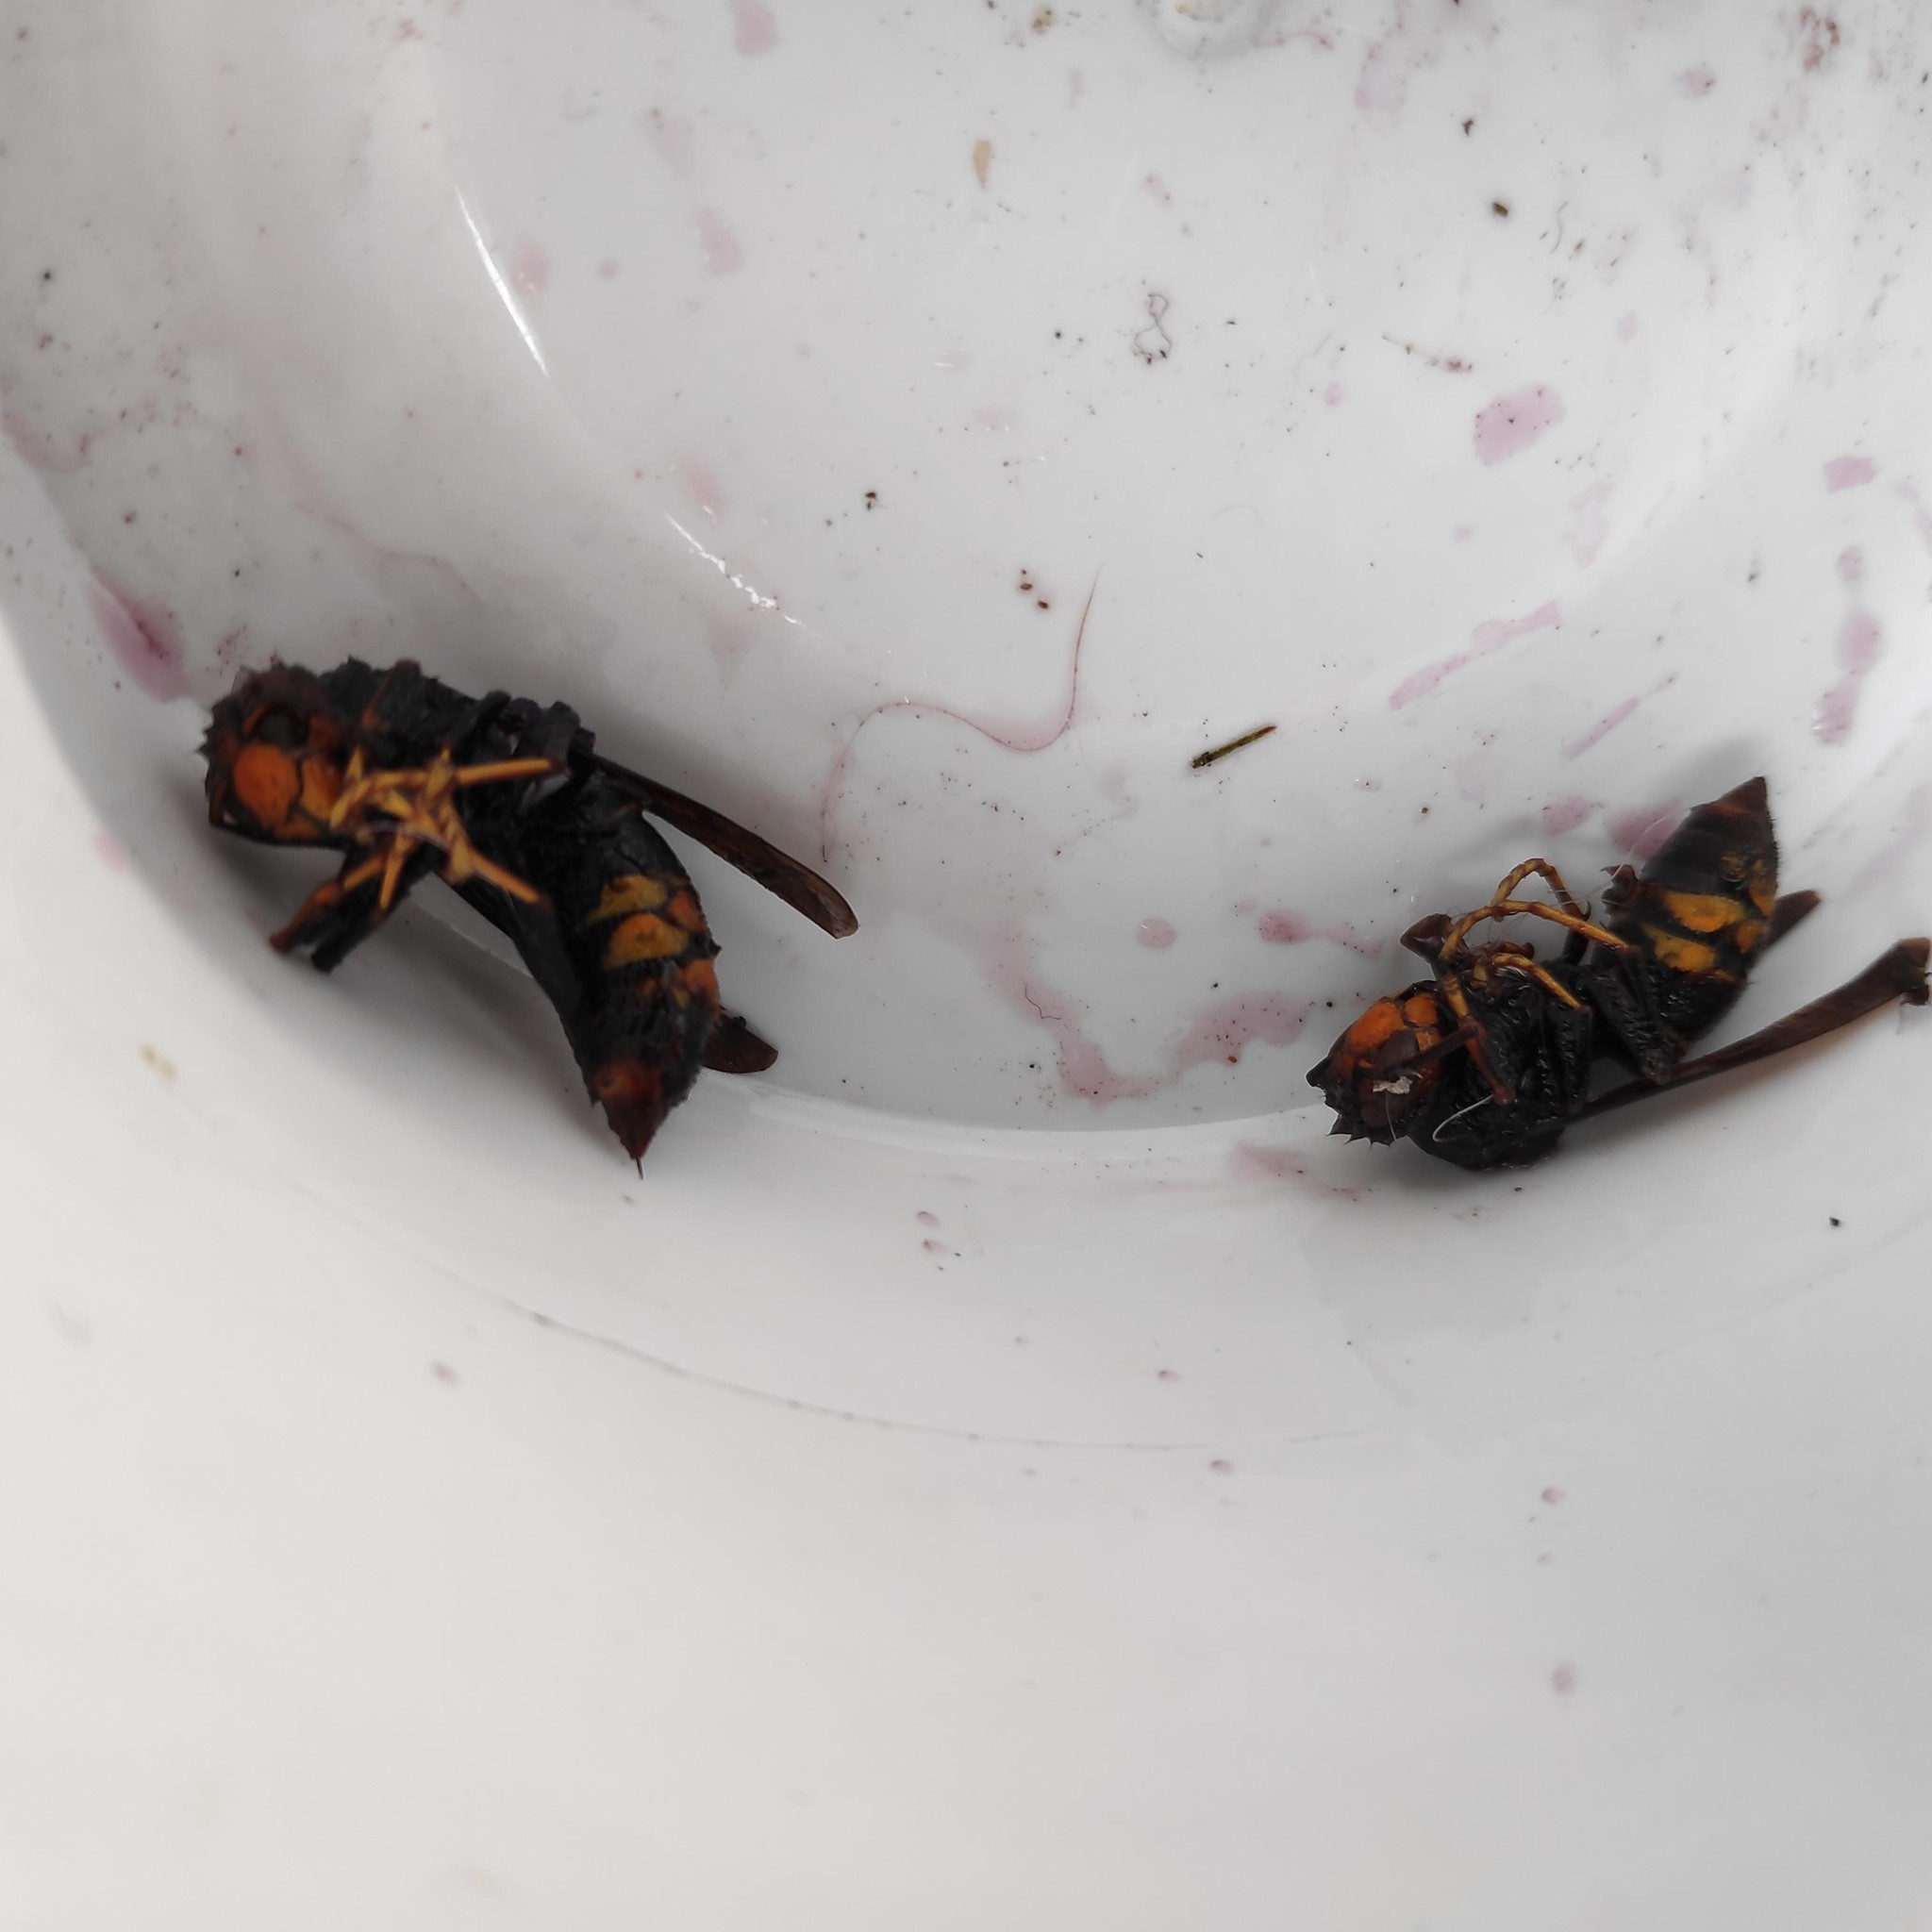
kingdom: Animalia
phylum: Arthropoda
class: Insecta
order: Hymenoptera
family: Vespidae
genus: Vespa
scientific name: Vespa velutina
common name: Asian hornet
